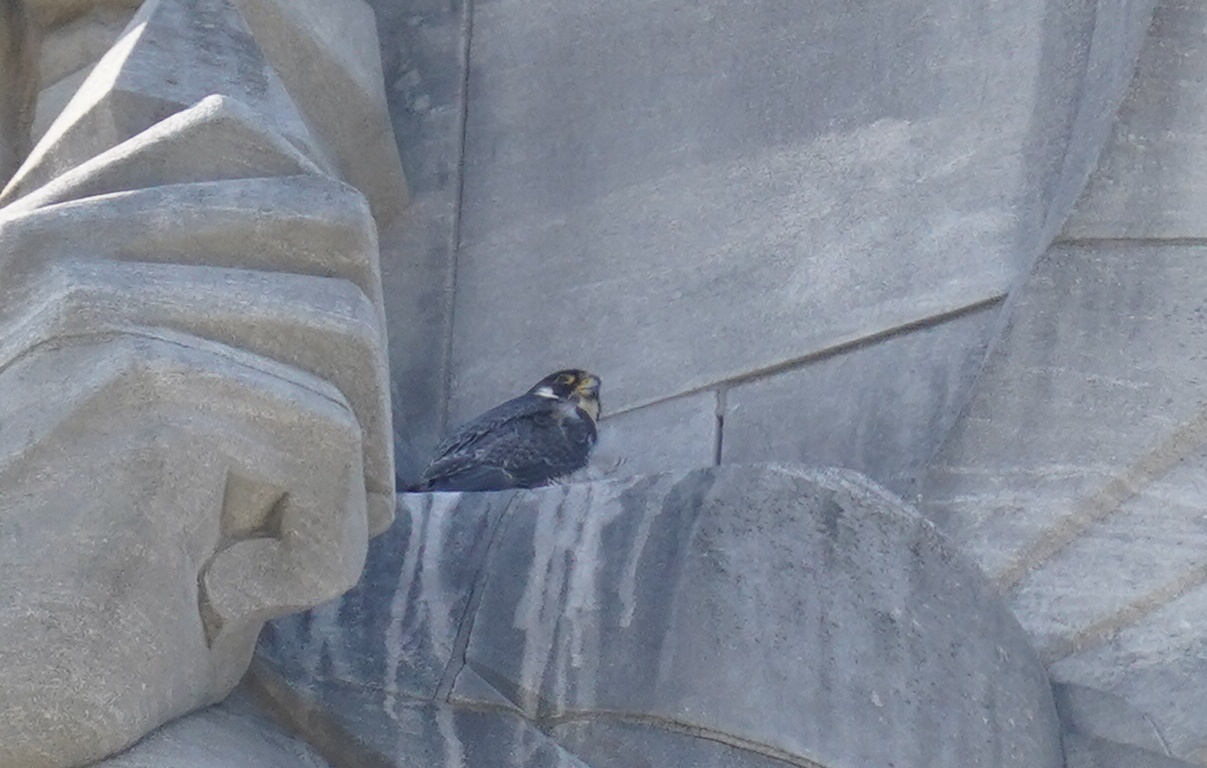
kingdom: Animalia
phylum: Chordata
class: Aves
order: Falconiformes
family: Falconidae
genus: Falco
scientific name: Falco peregrinus
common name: Peregrine falcon
